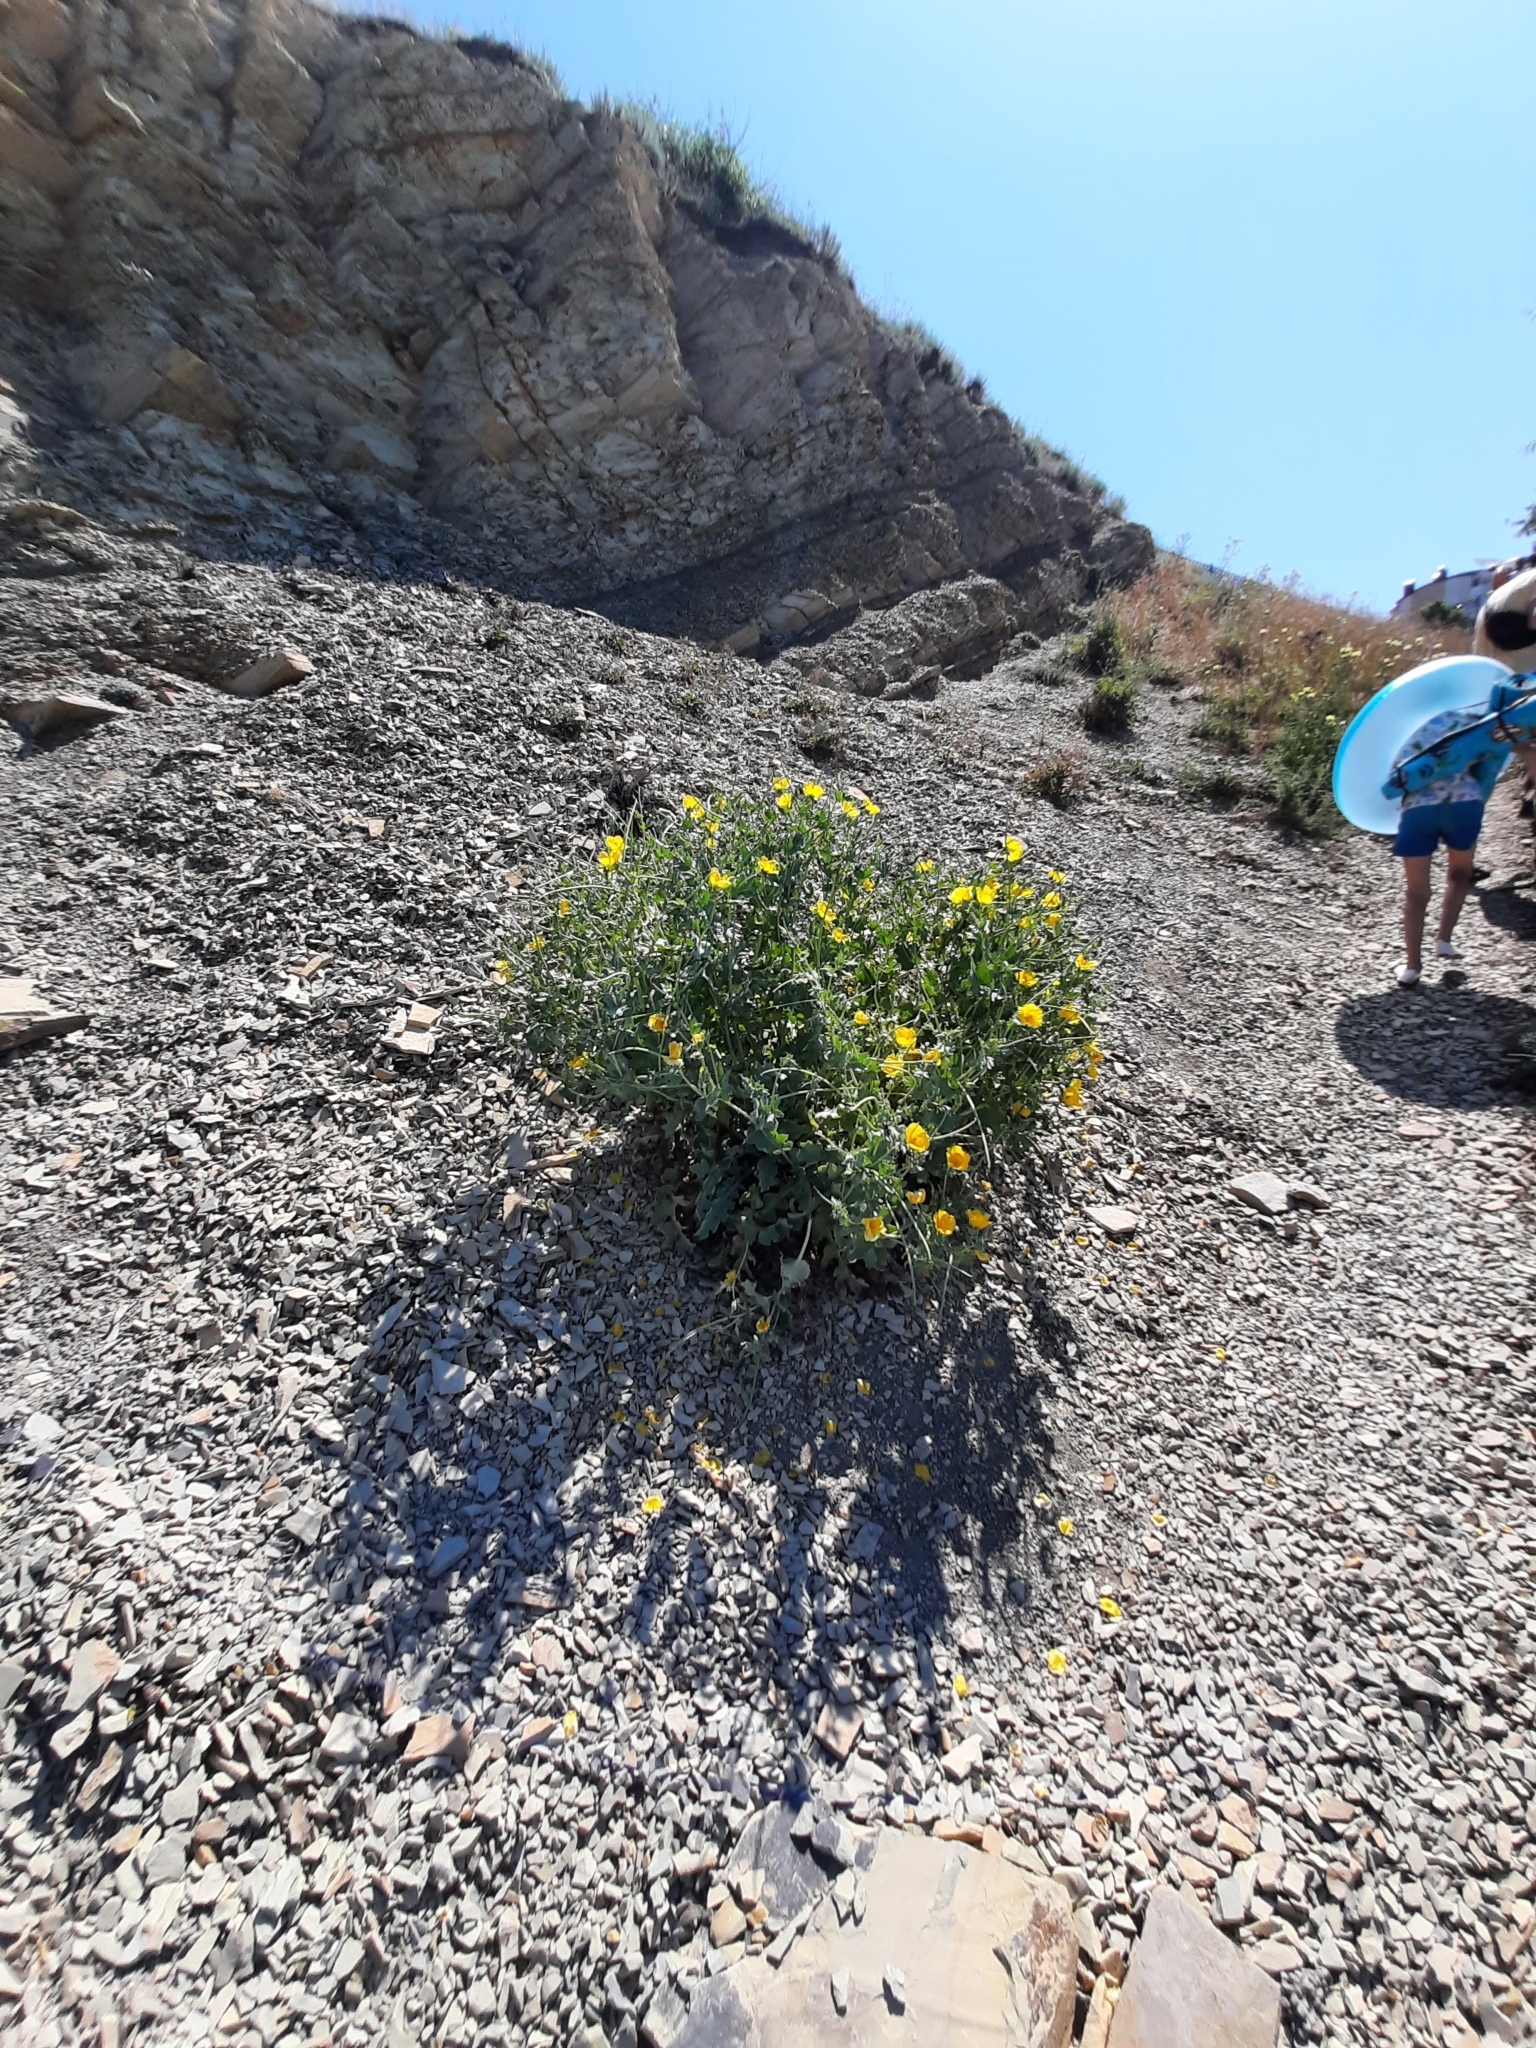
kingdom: Plantae
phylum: Tracheophyta
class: Magnoliopsida
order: Ranunculales
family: Papaveraceae
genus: Glaucium
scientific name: Glaucium flavum
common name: Yellow horned-poppy
